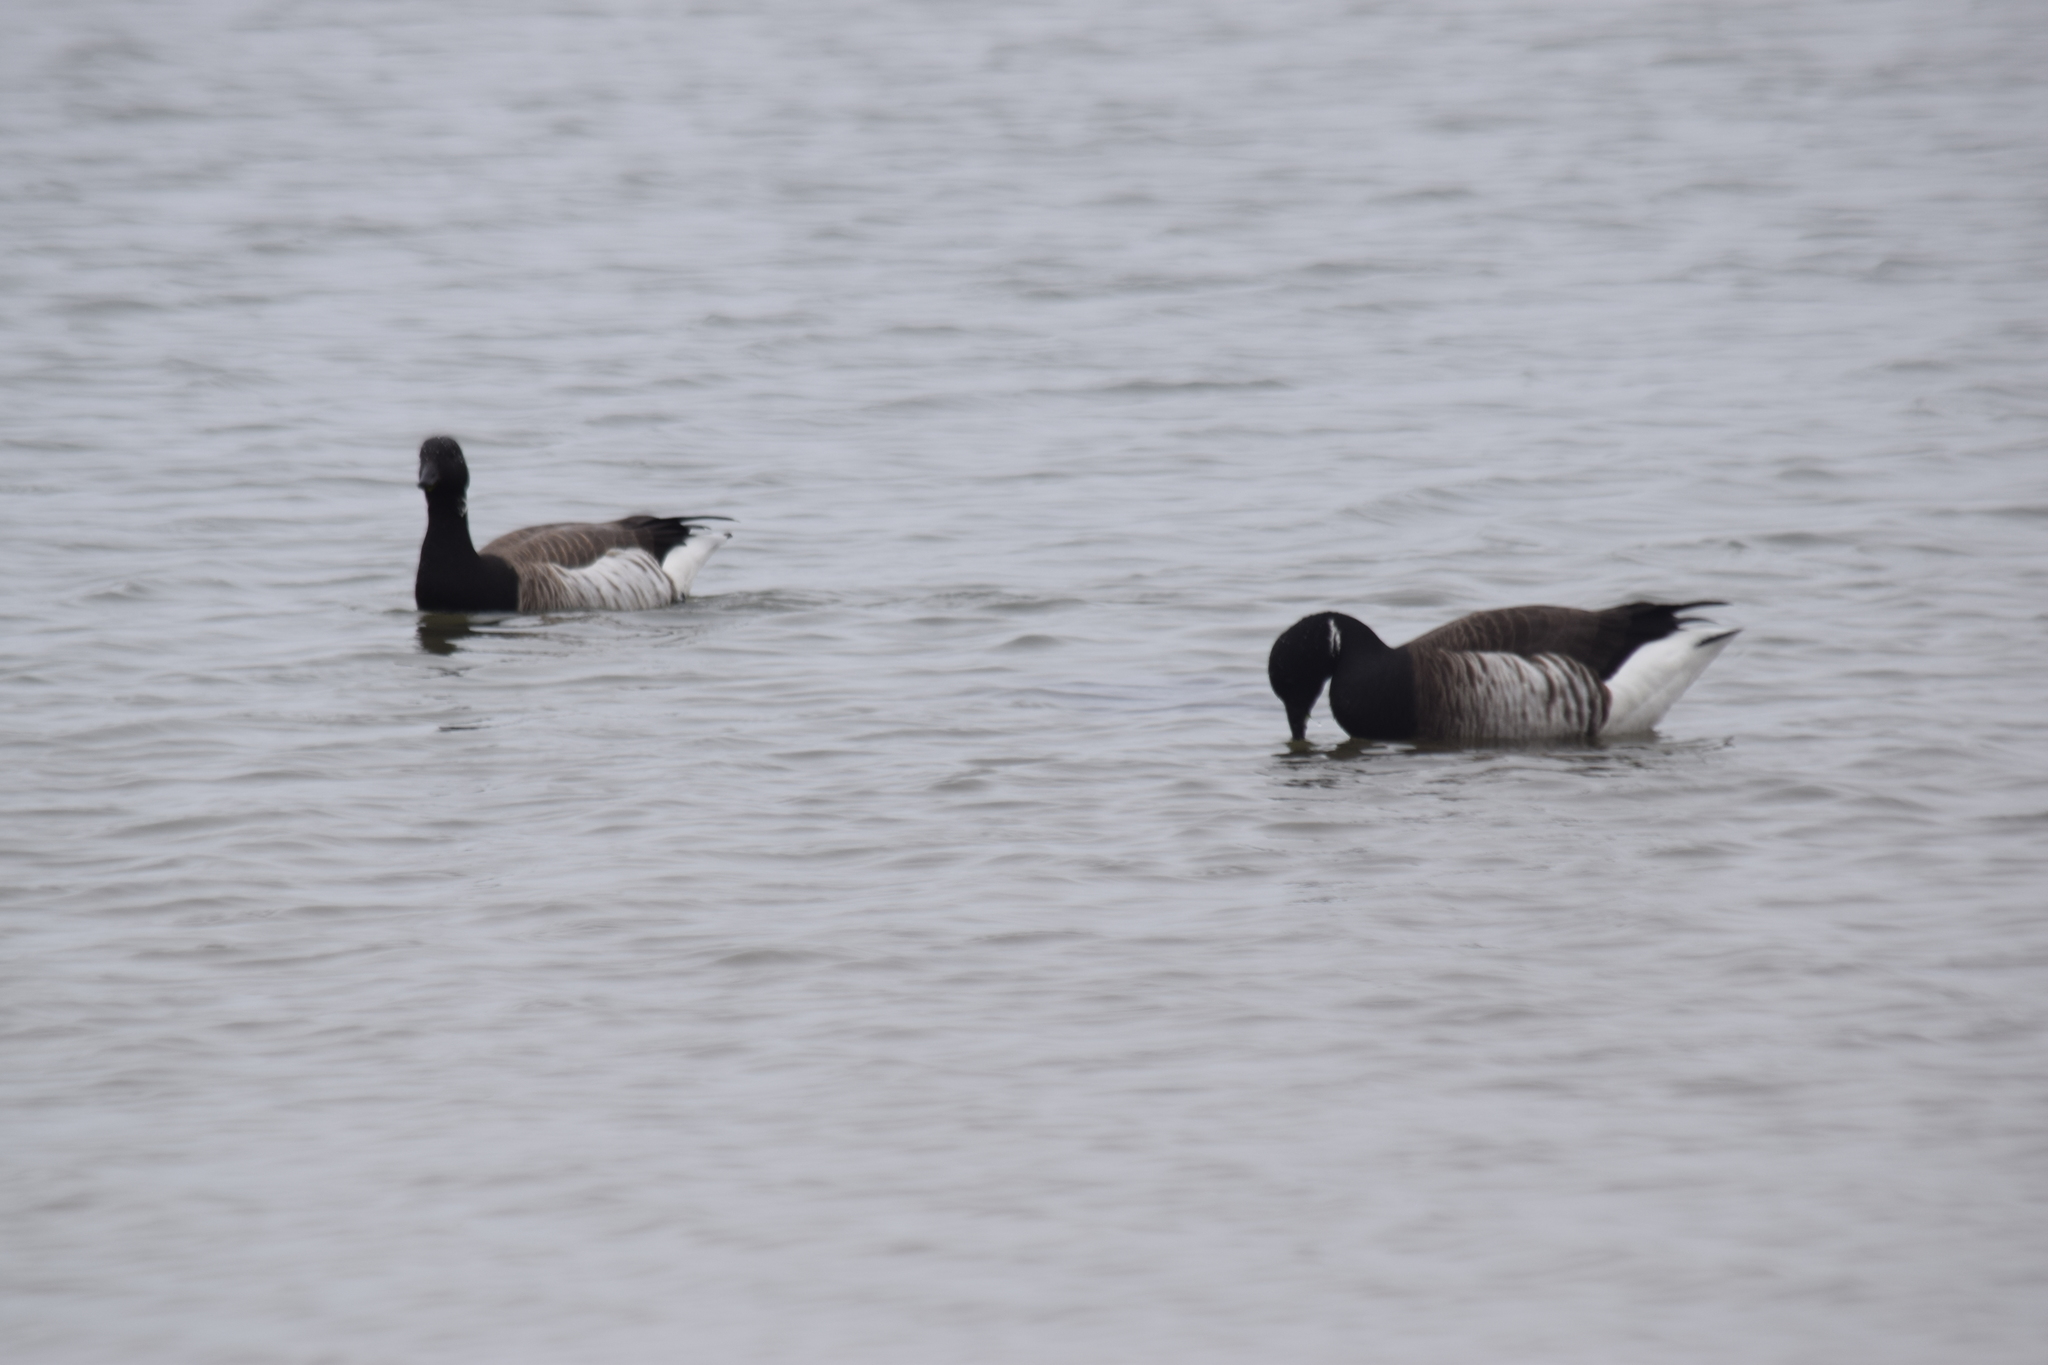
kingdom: Animalia
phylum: Chordata
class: Aves
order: Anseriformes
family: Anatidae
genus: Branta
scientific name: Branta bernicla
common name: Brant goose
